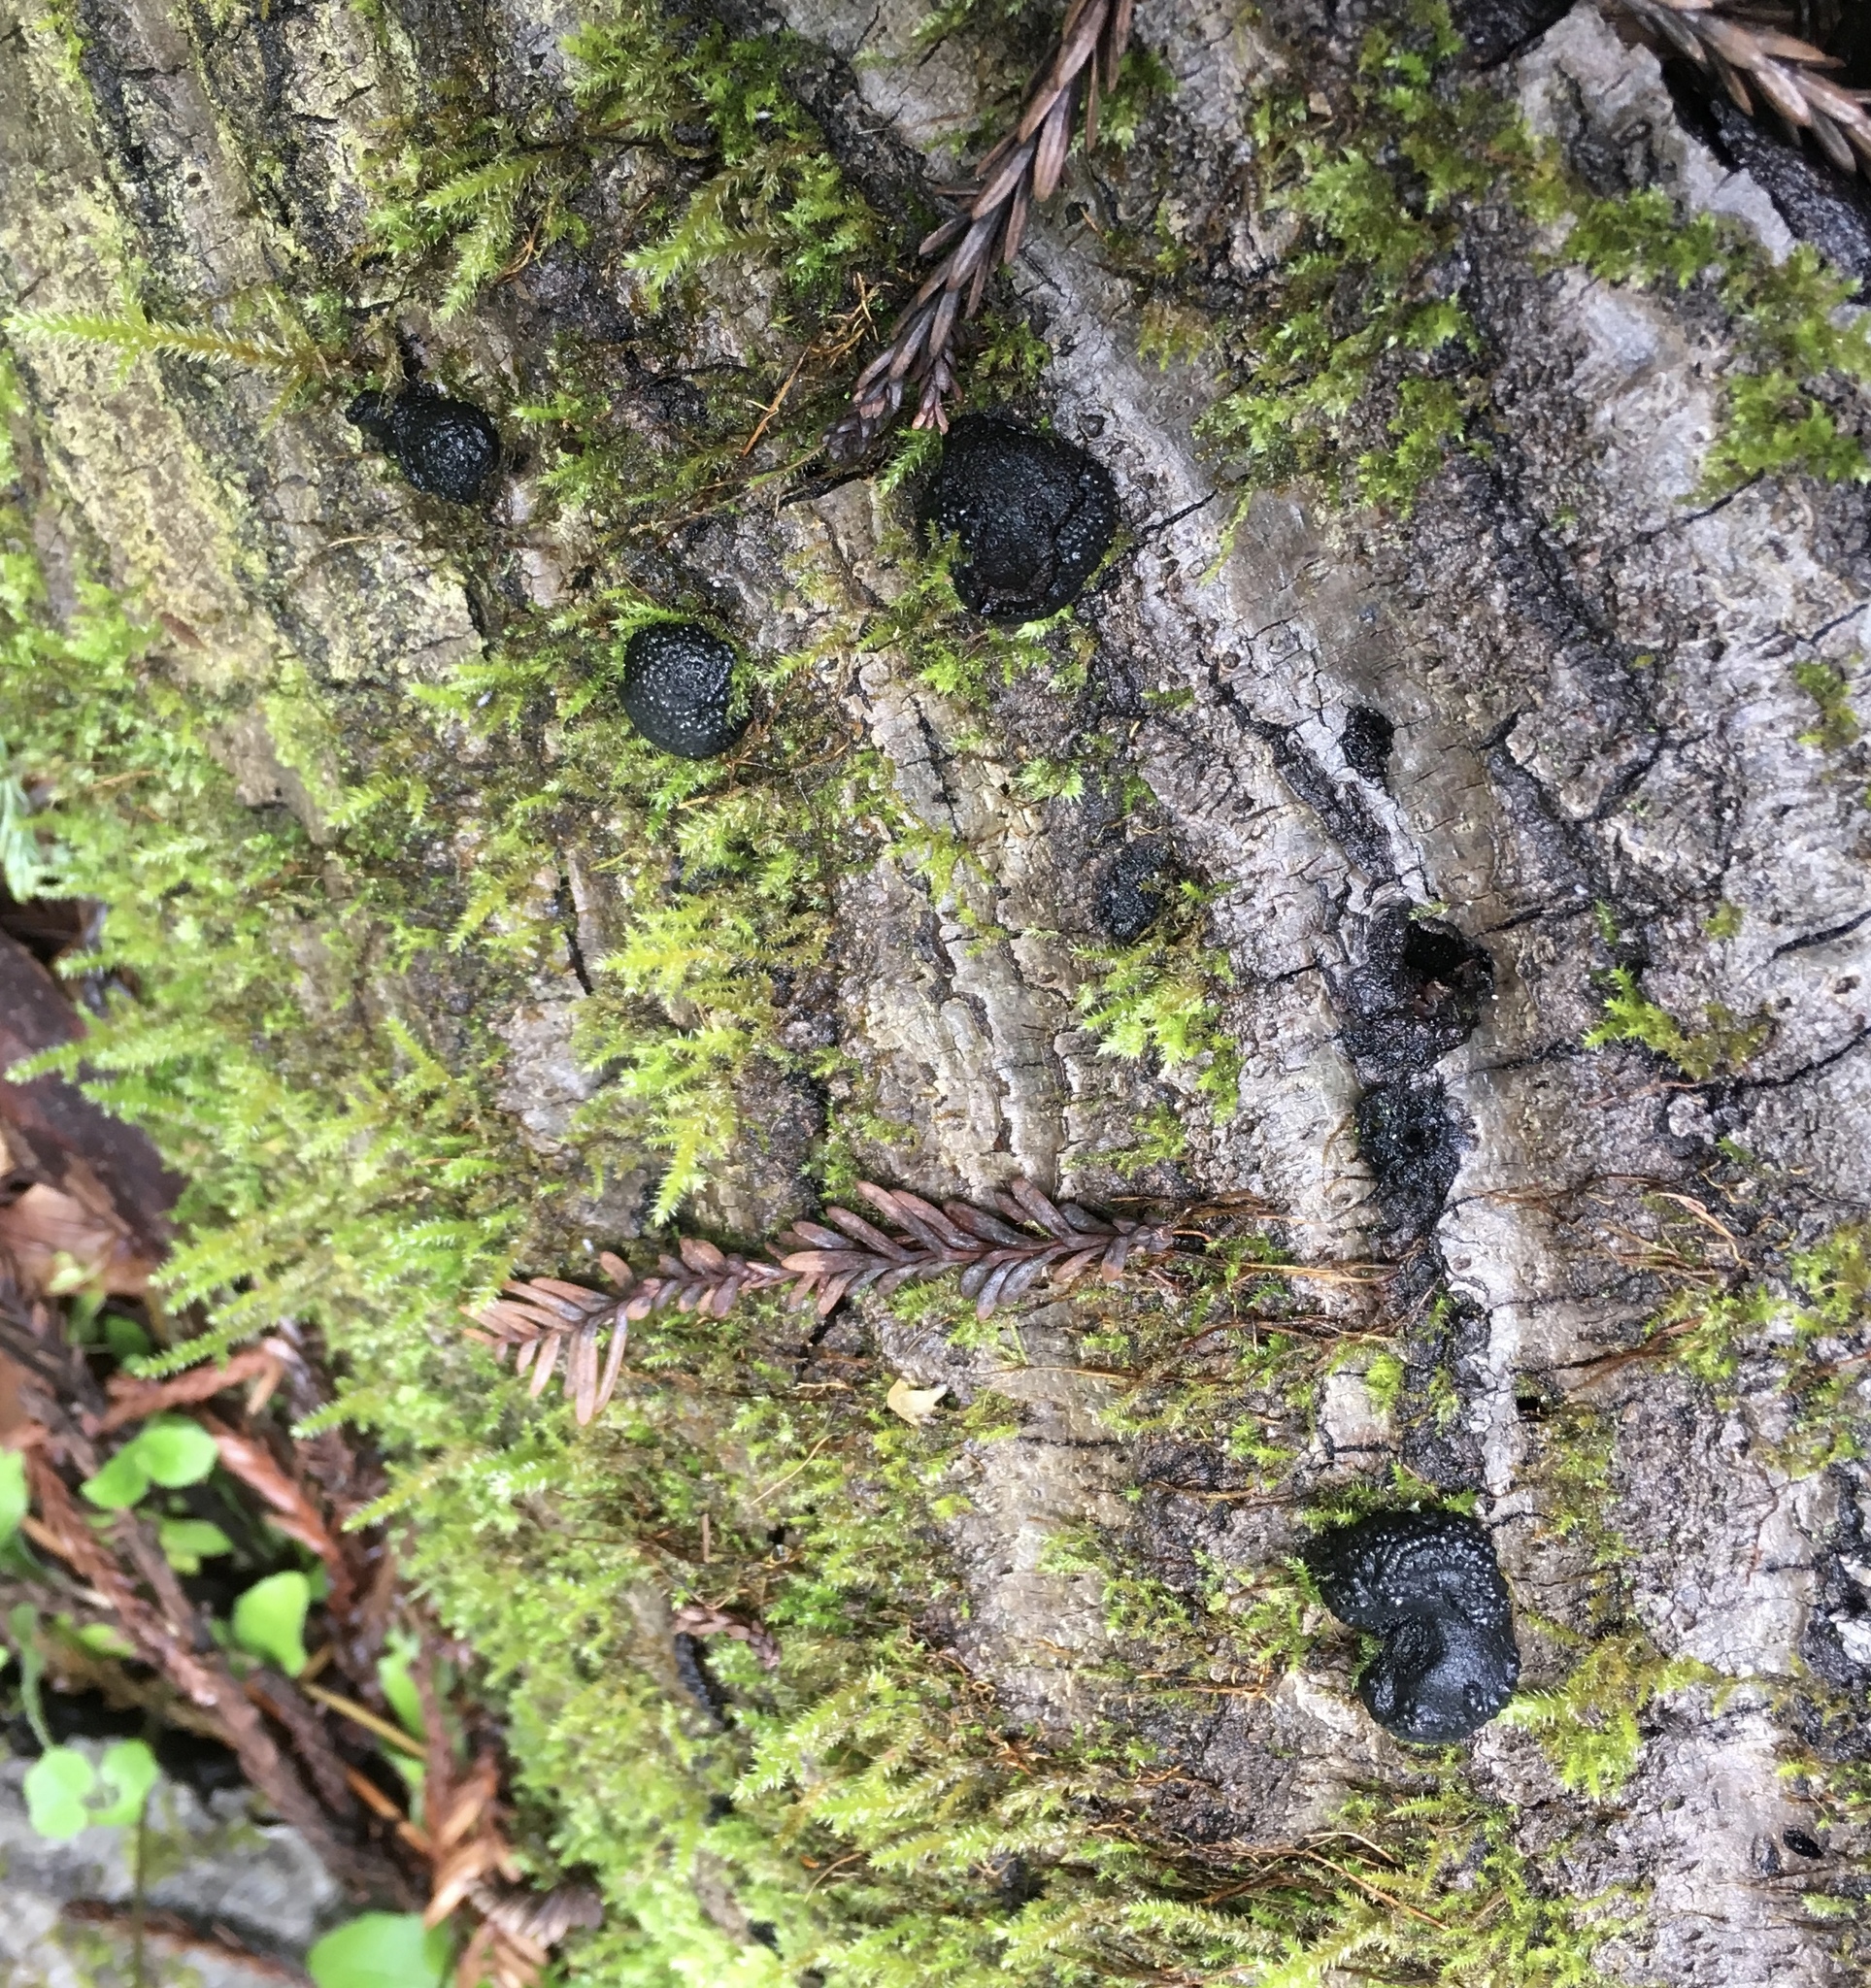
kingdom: Fungi
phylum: Ascomycota
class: Sordariomycetes
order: Xylariales
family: Hypoxylaceae
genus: Annulohypoxylon
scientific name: Annulohypoxylon thouarsianum
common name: Cramp balls
